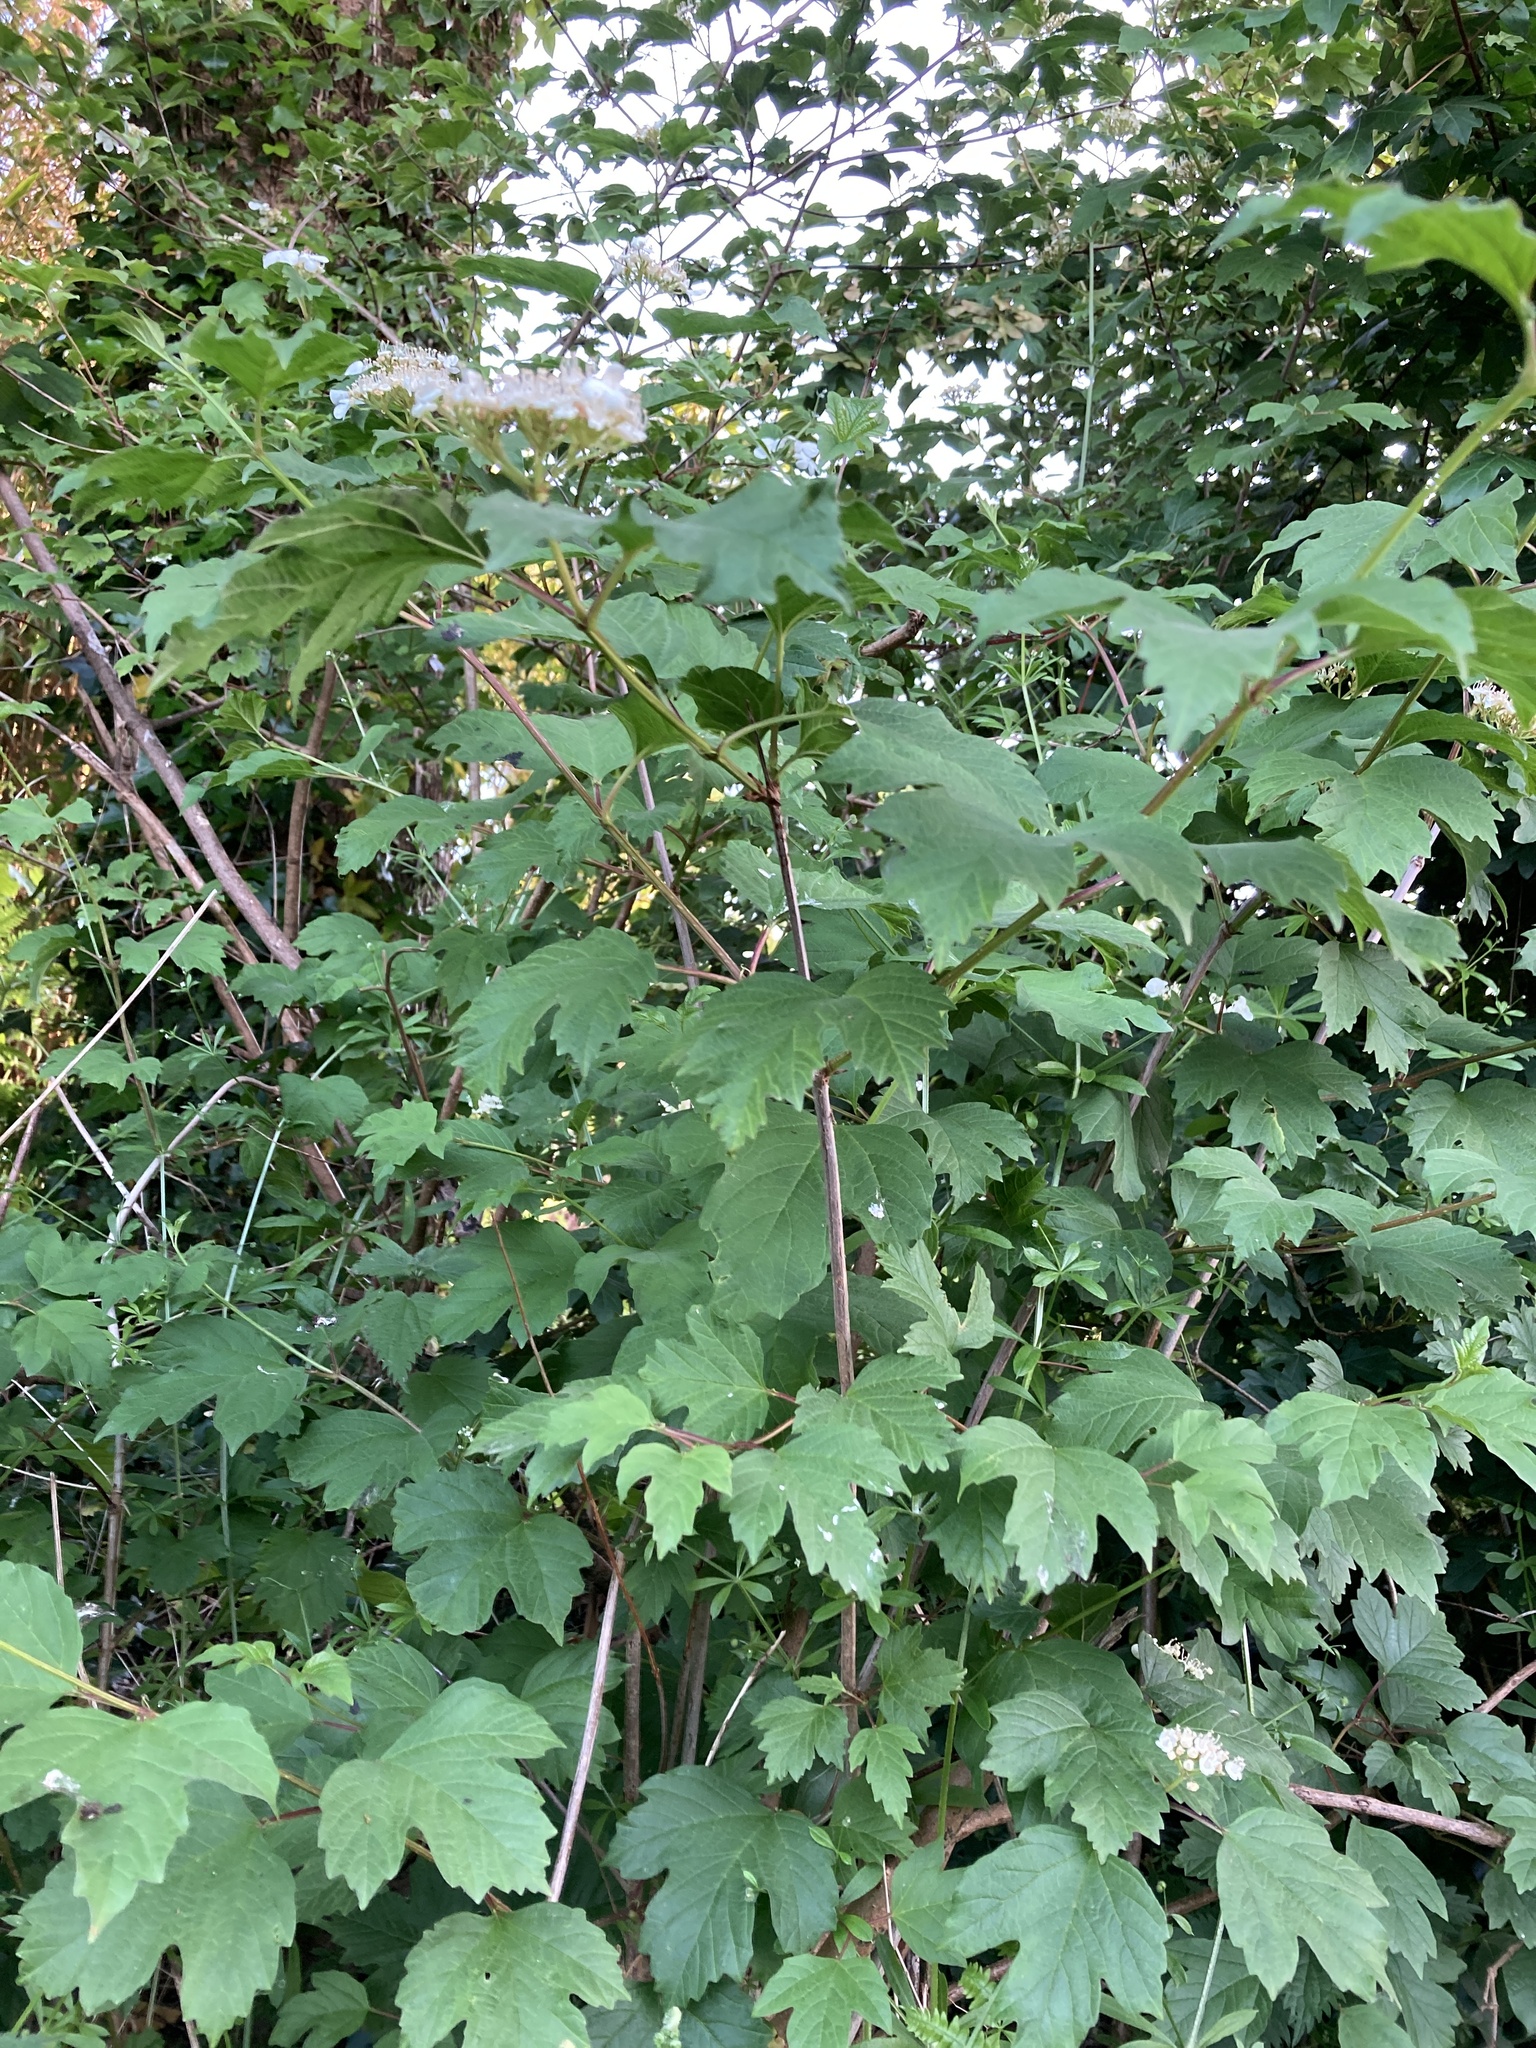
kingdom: Plantae
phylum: Tracheophyta
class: Magnoliopsida
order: Dipsacales
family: Viburnaceae
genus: Viburnum
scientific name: Viburnum opulus
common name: Guelder-rose
